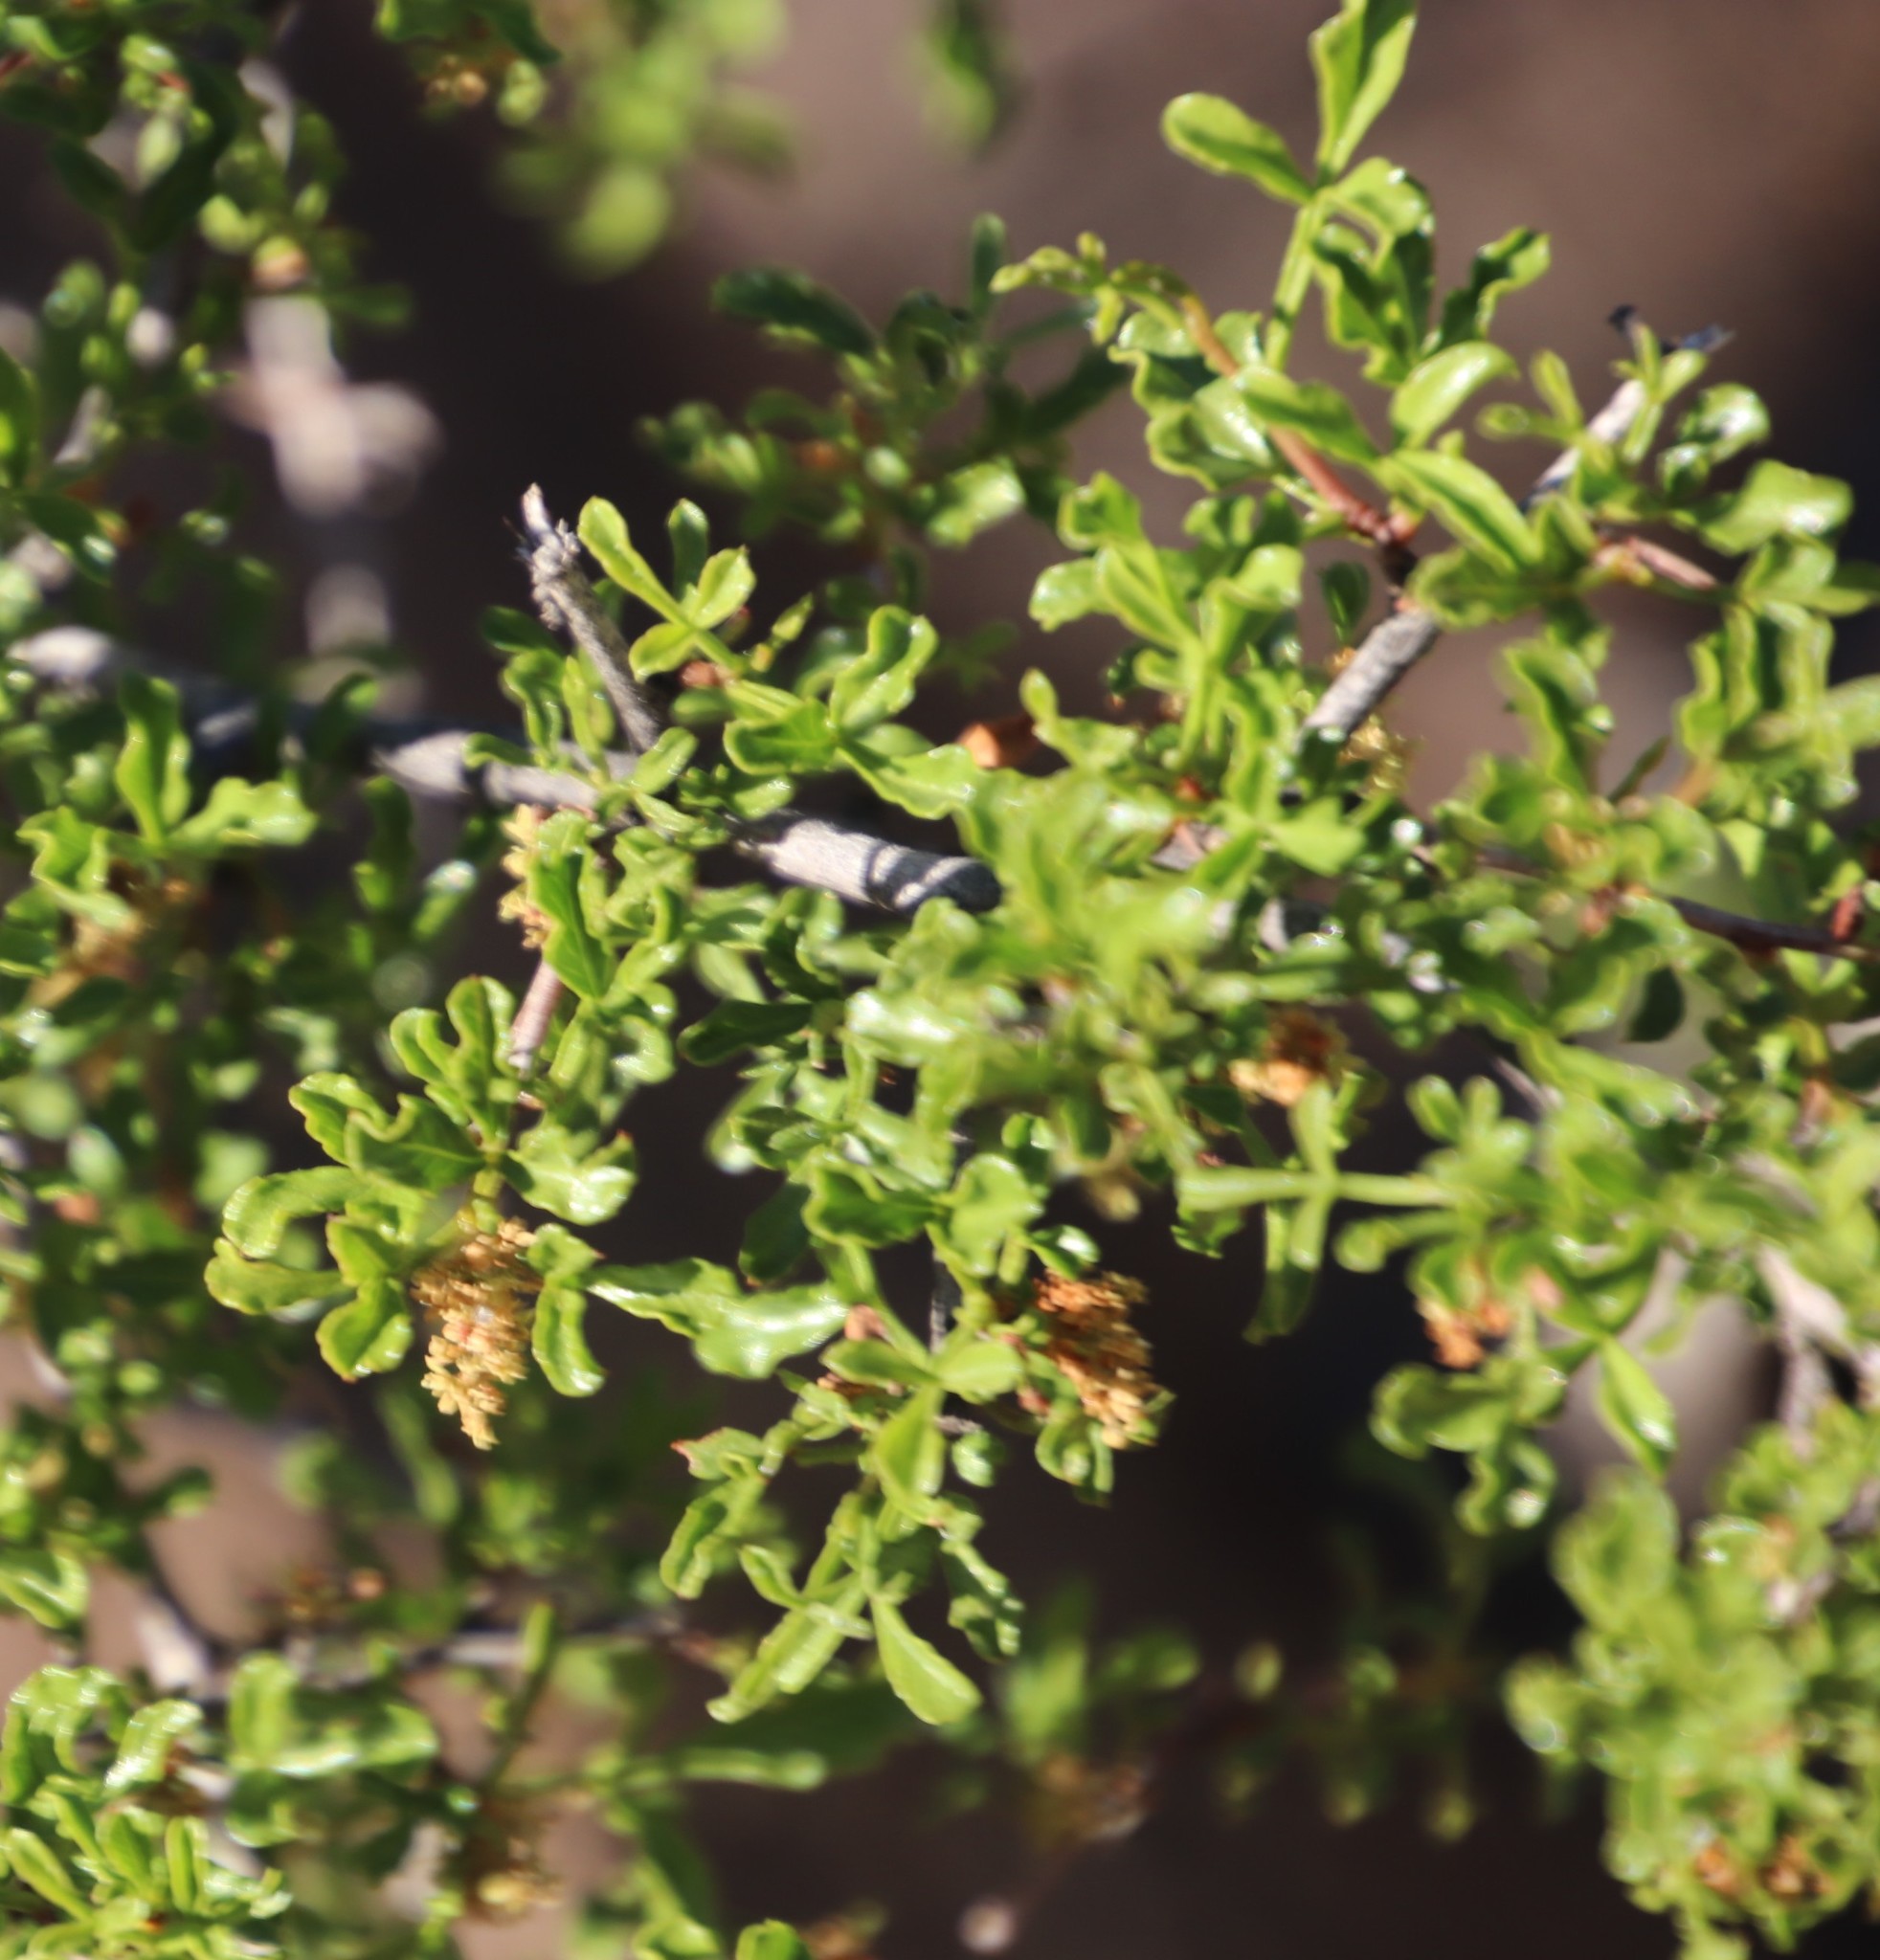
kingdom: Plantae
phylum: Tracheophyta
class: Magnoliopsida
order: Sapindales
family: Anacardiaceae
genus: Searsia
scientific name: Searsia undulata
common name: Namaqua kunibush
